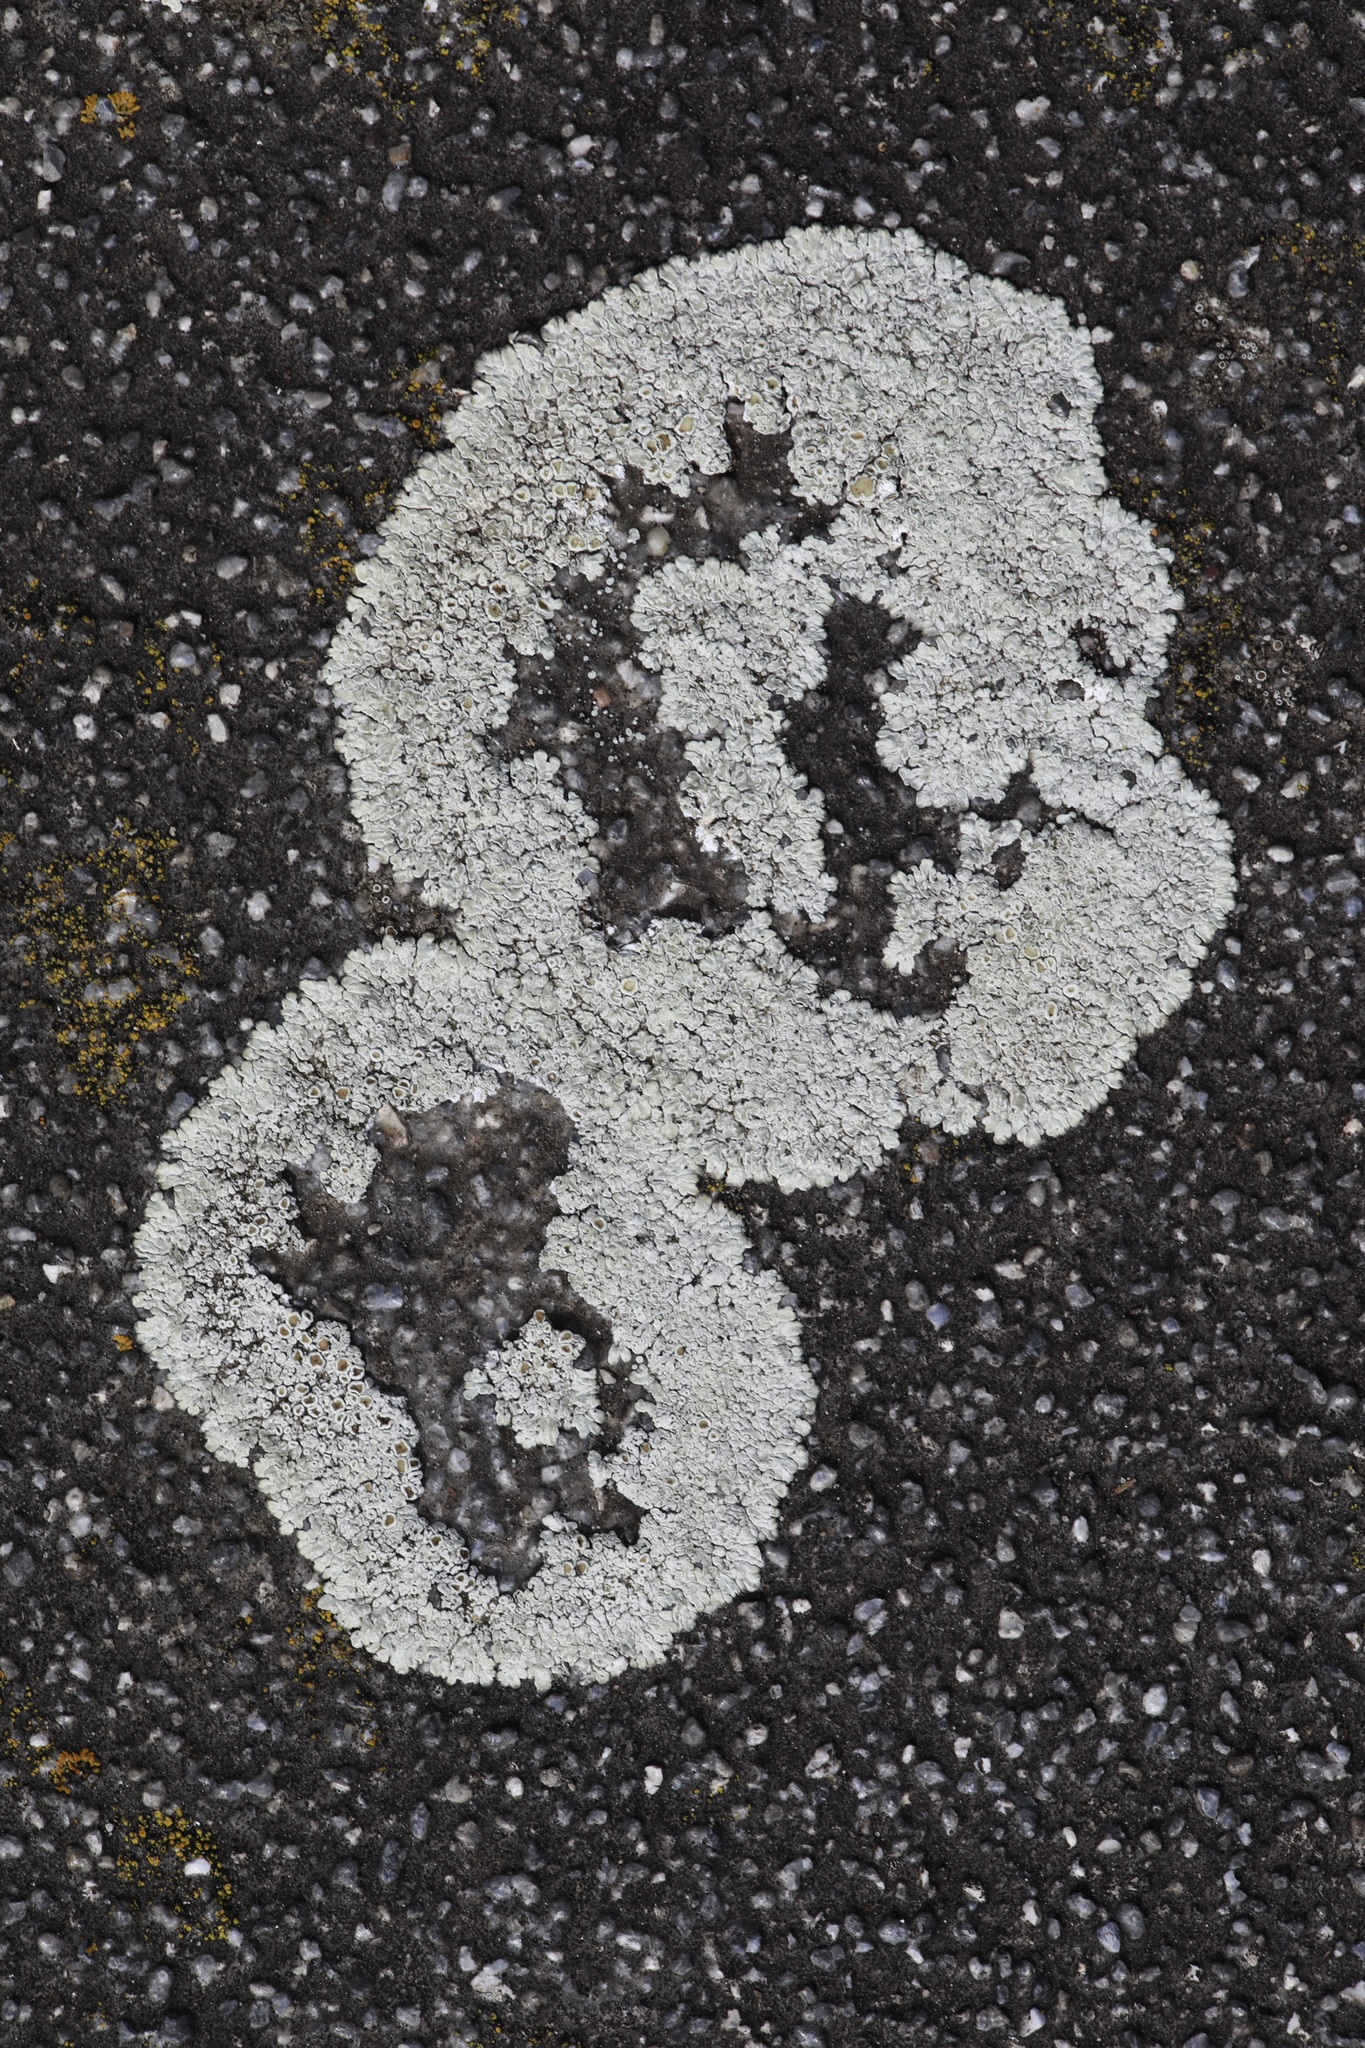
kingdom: Fungi
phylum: Ascomycota
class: Lecanoromycetes
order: Lecanorales
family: Lecanoraceae
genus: Protoparmeliopsis
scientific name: Protoparmeliopsis muralis
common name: Stonewall rim lichen
